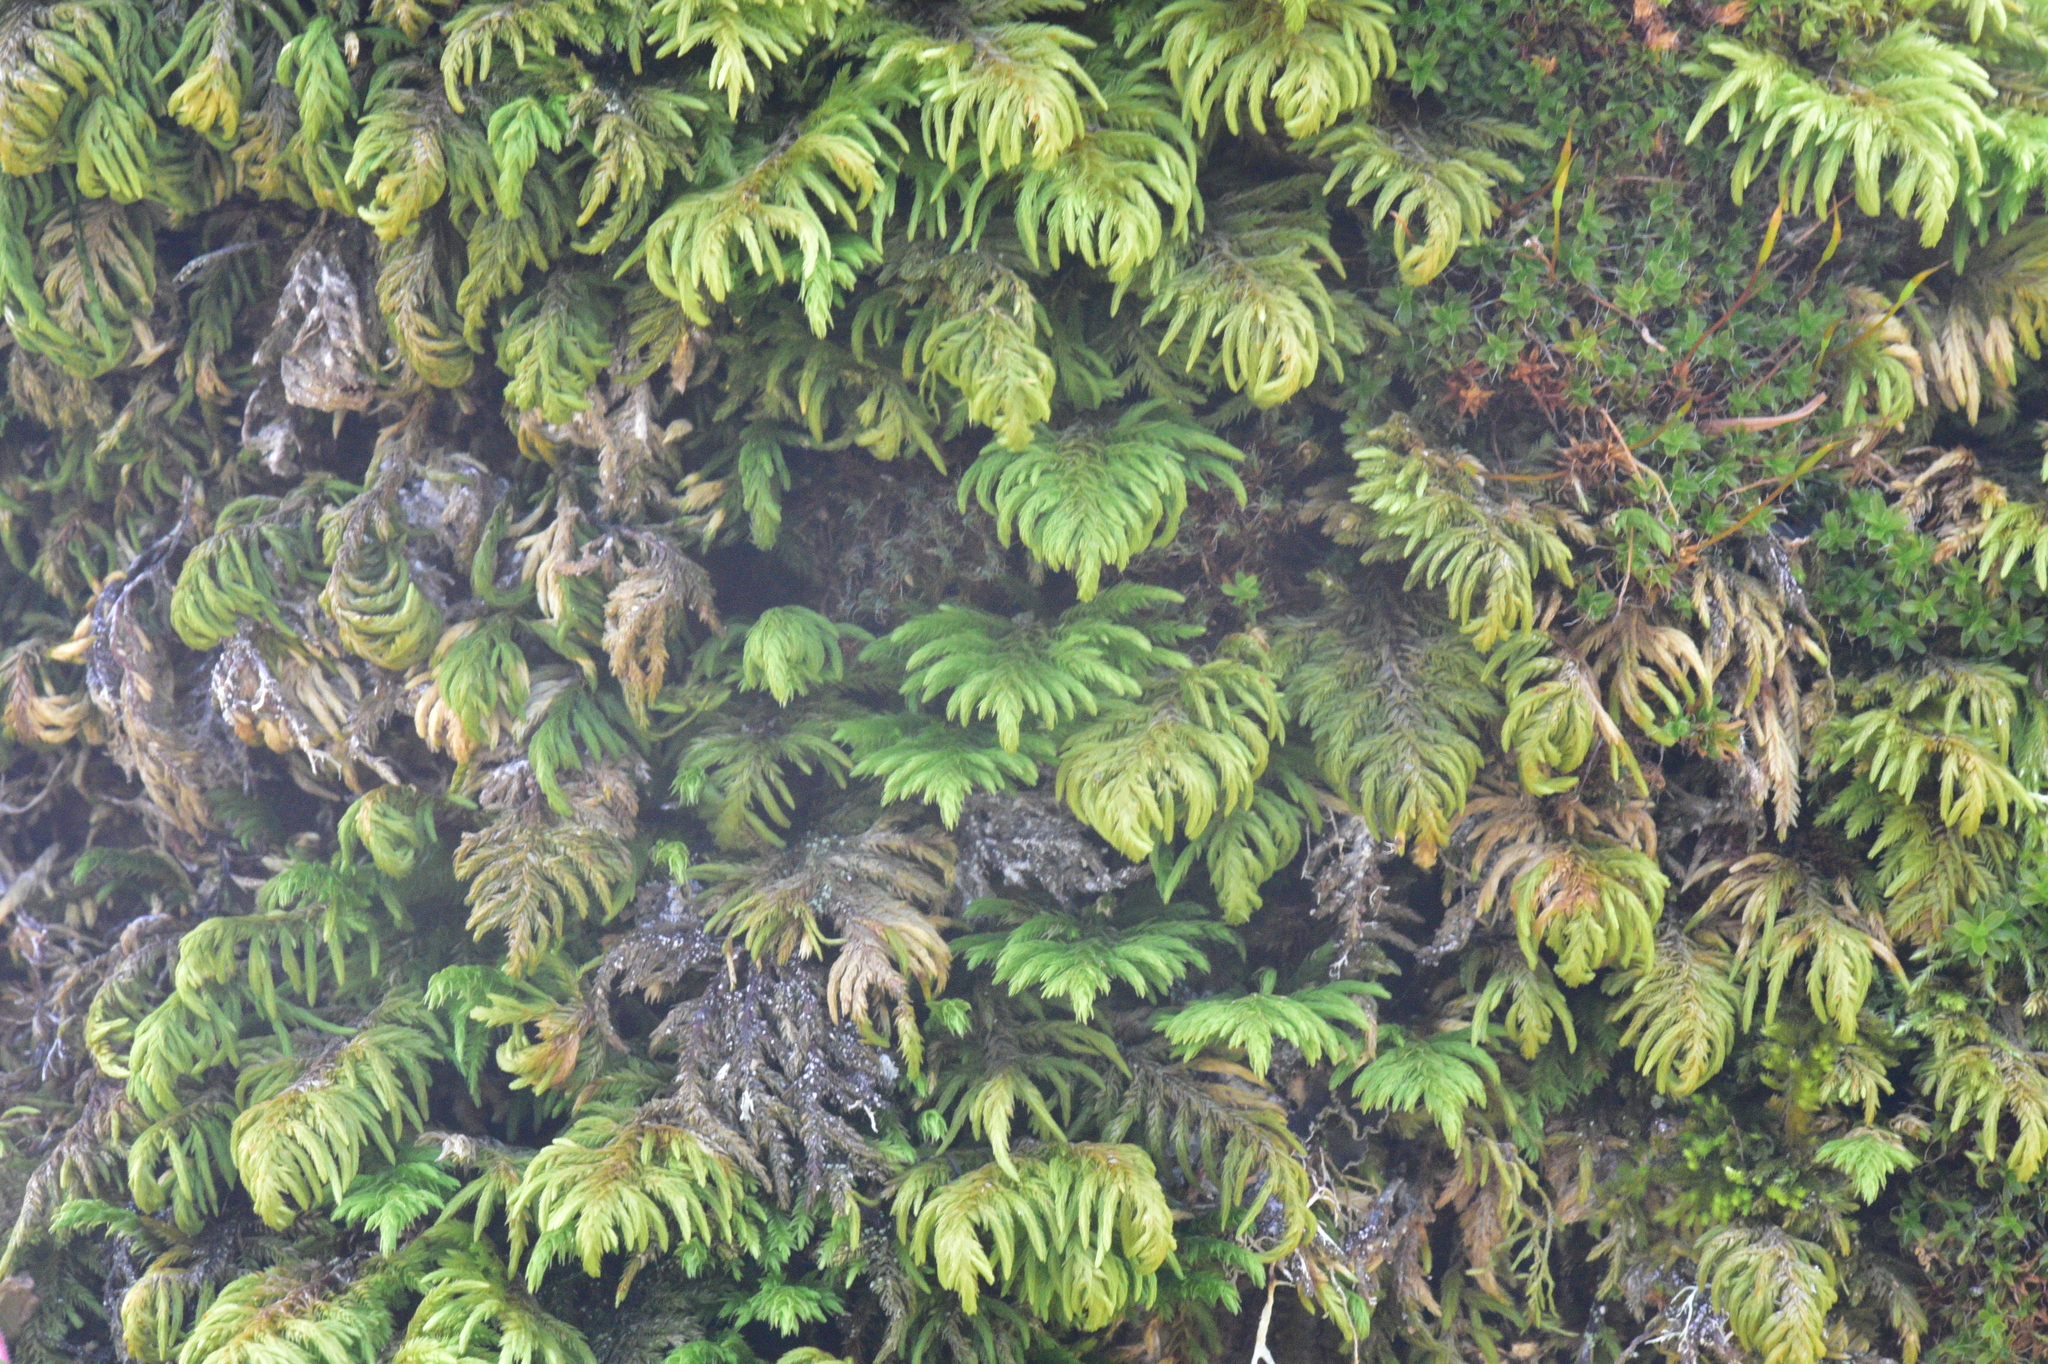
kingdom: Plantae
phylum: Bryophyta
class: Bryopsida
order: Hypnales
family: Cryphaeaceae
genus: Dendroalsia
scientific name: Dendroalsia abietina
